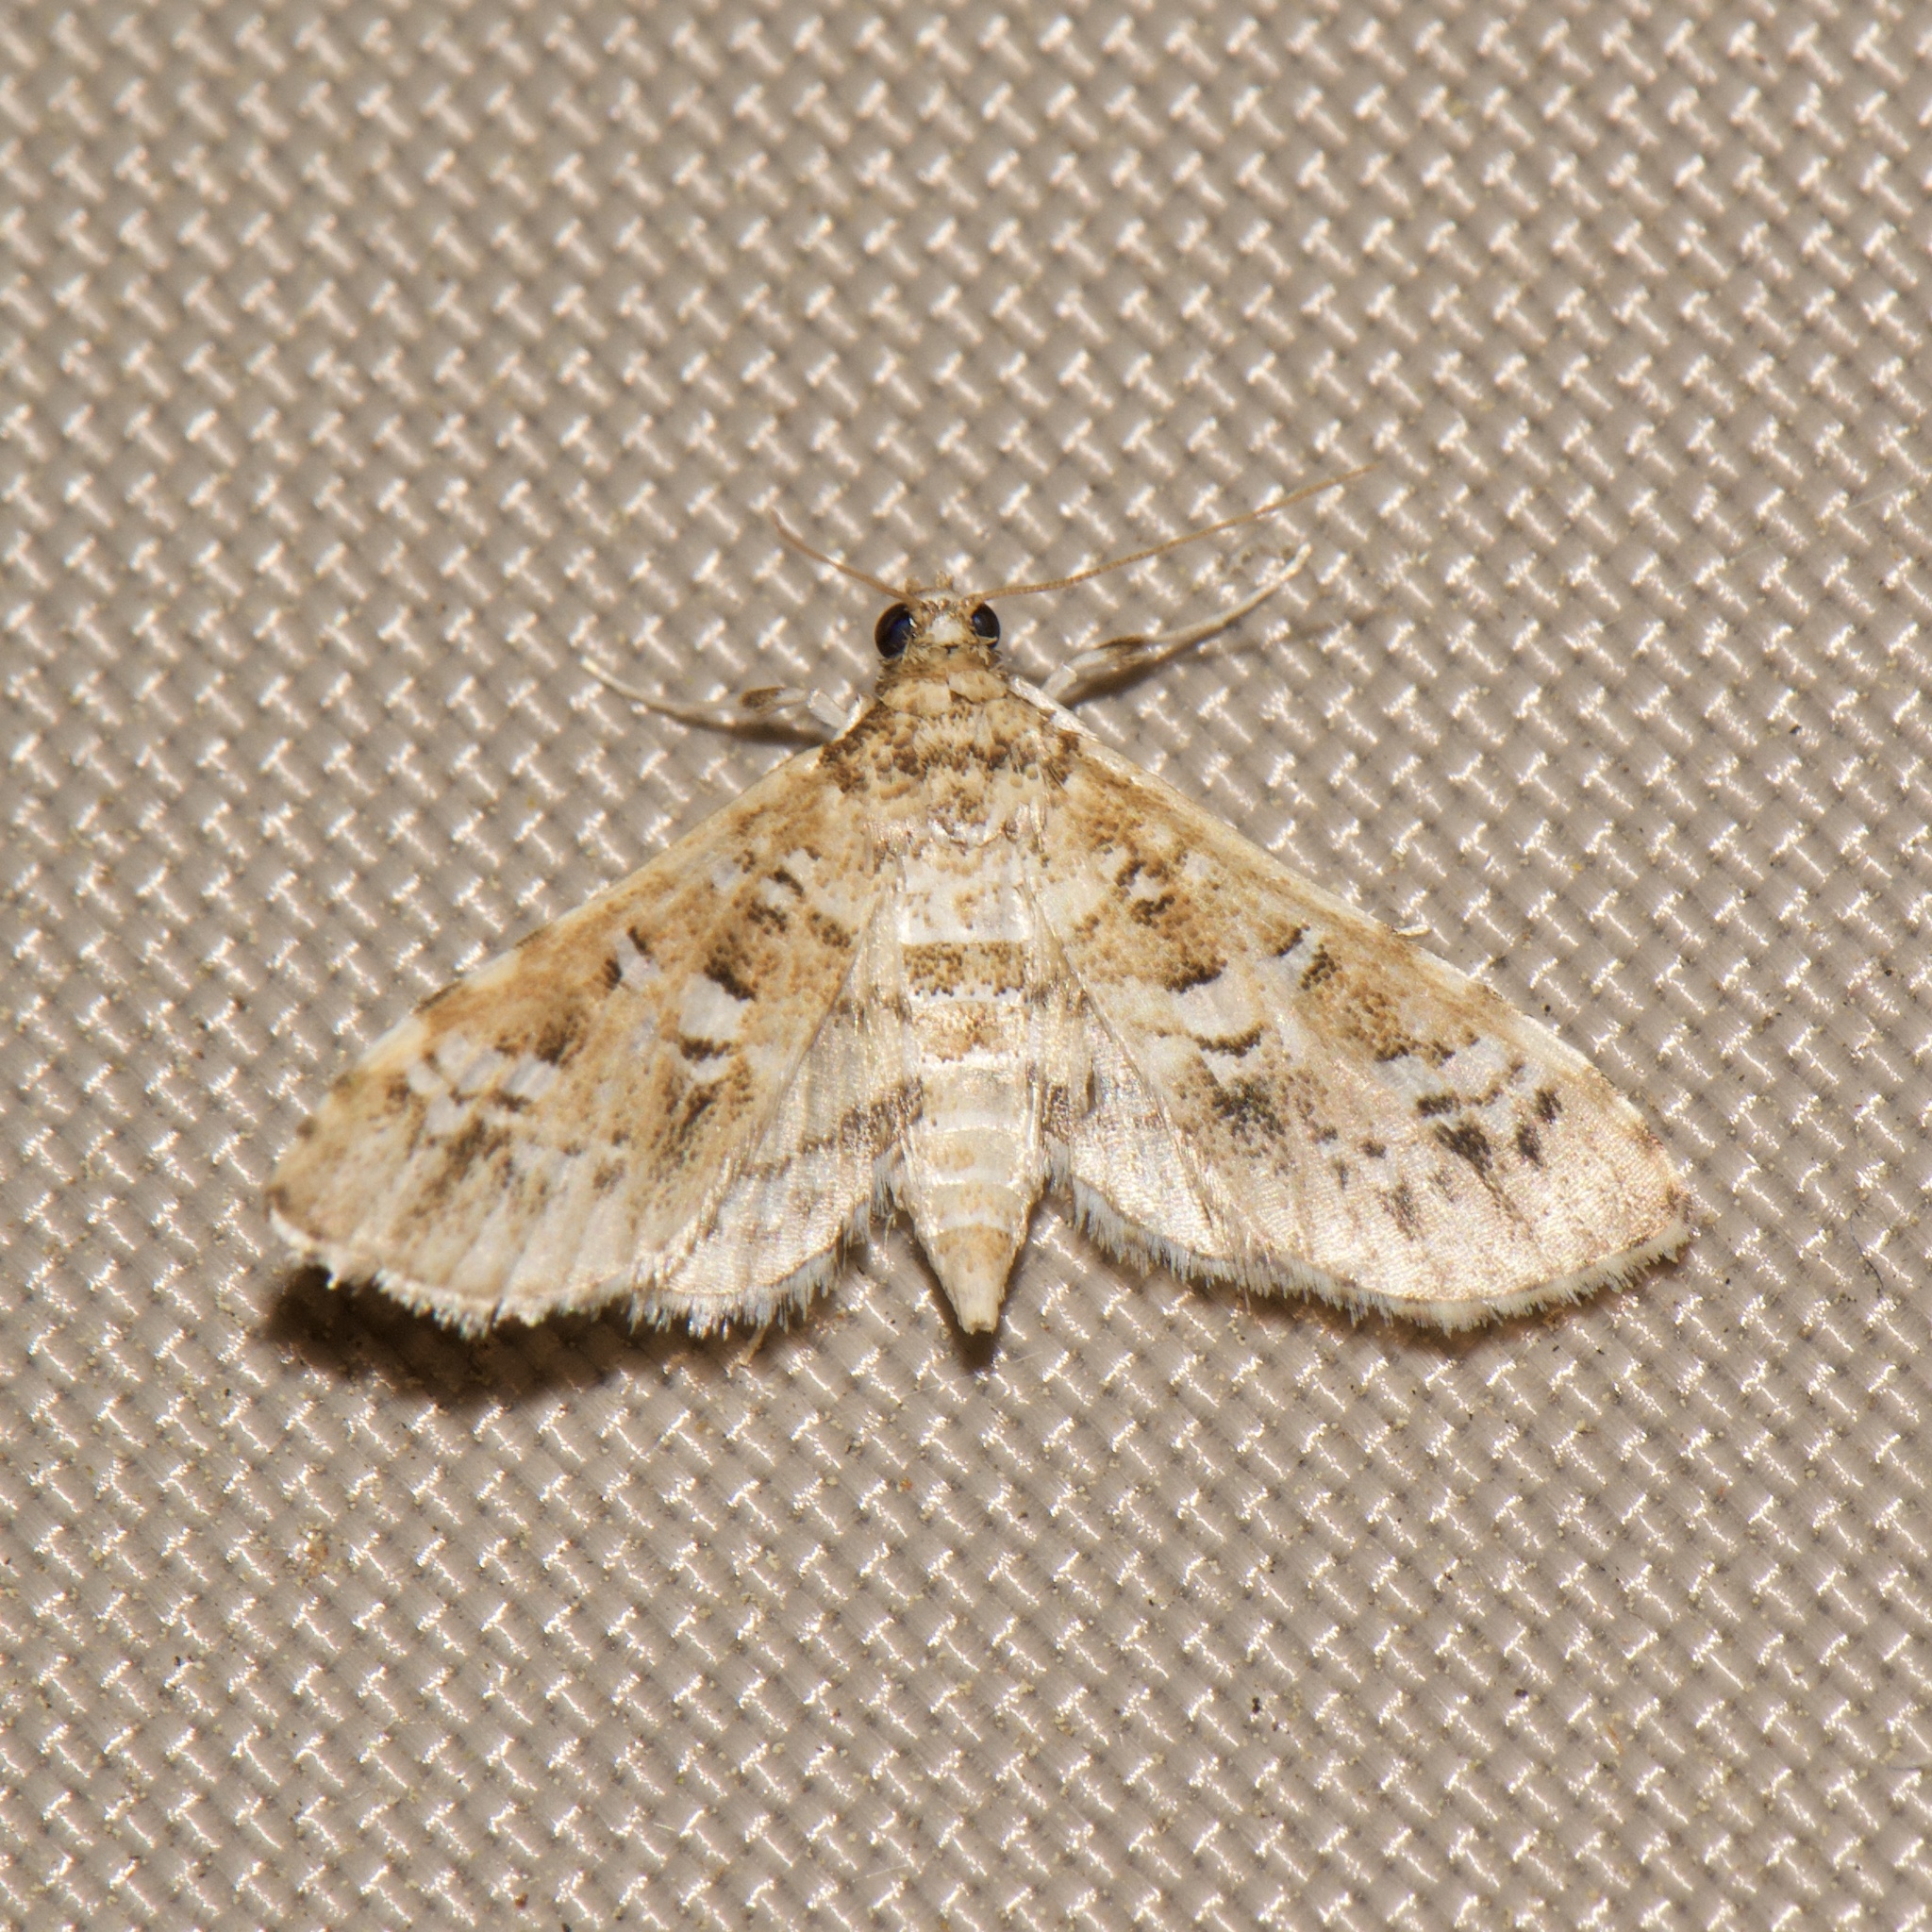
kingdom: Animalia
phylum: Arthropoda
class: Insecta
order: Lepidoptera
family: Crambidae
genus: Samea
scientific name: Samea multiplicalis
